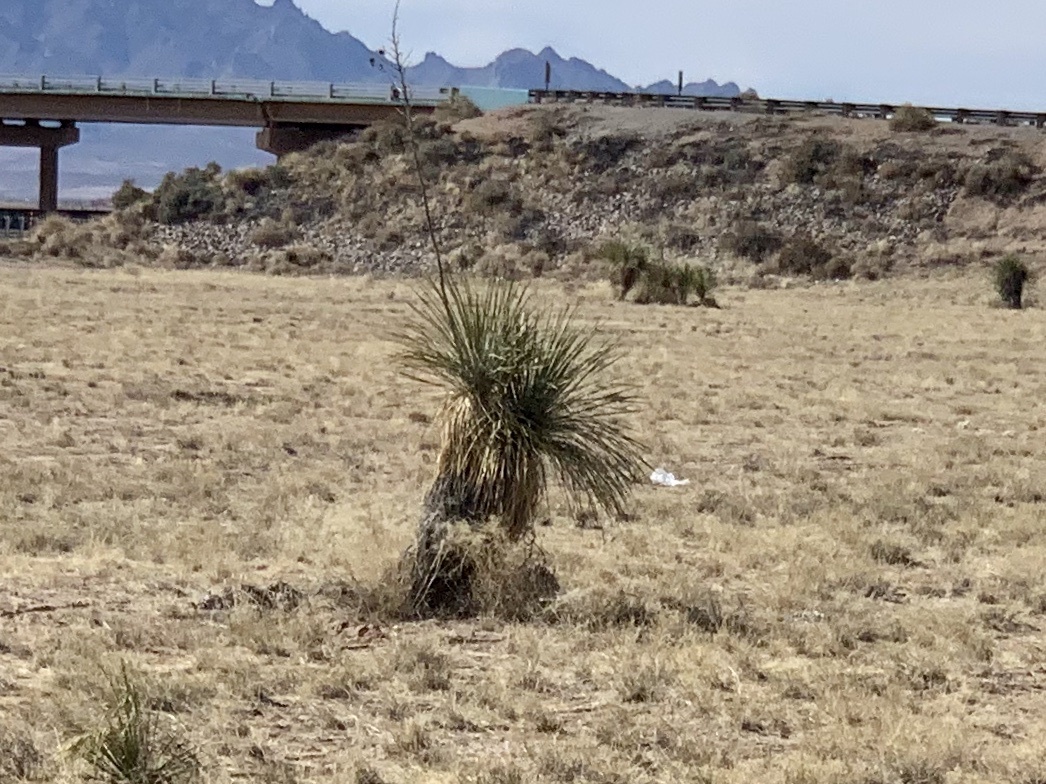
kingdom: Plantae
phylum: Tracheophyta
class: Liliopsida
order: Asparagales
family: Asparagaceae
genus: Yucca
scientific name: Yucca elata
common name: Palmella
